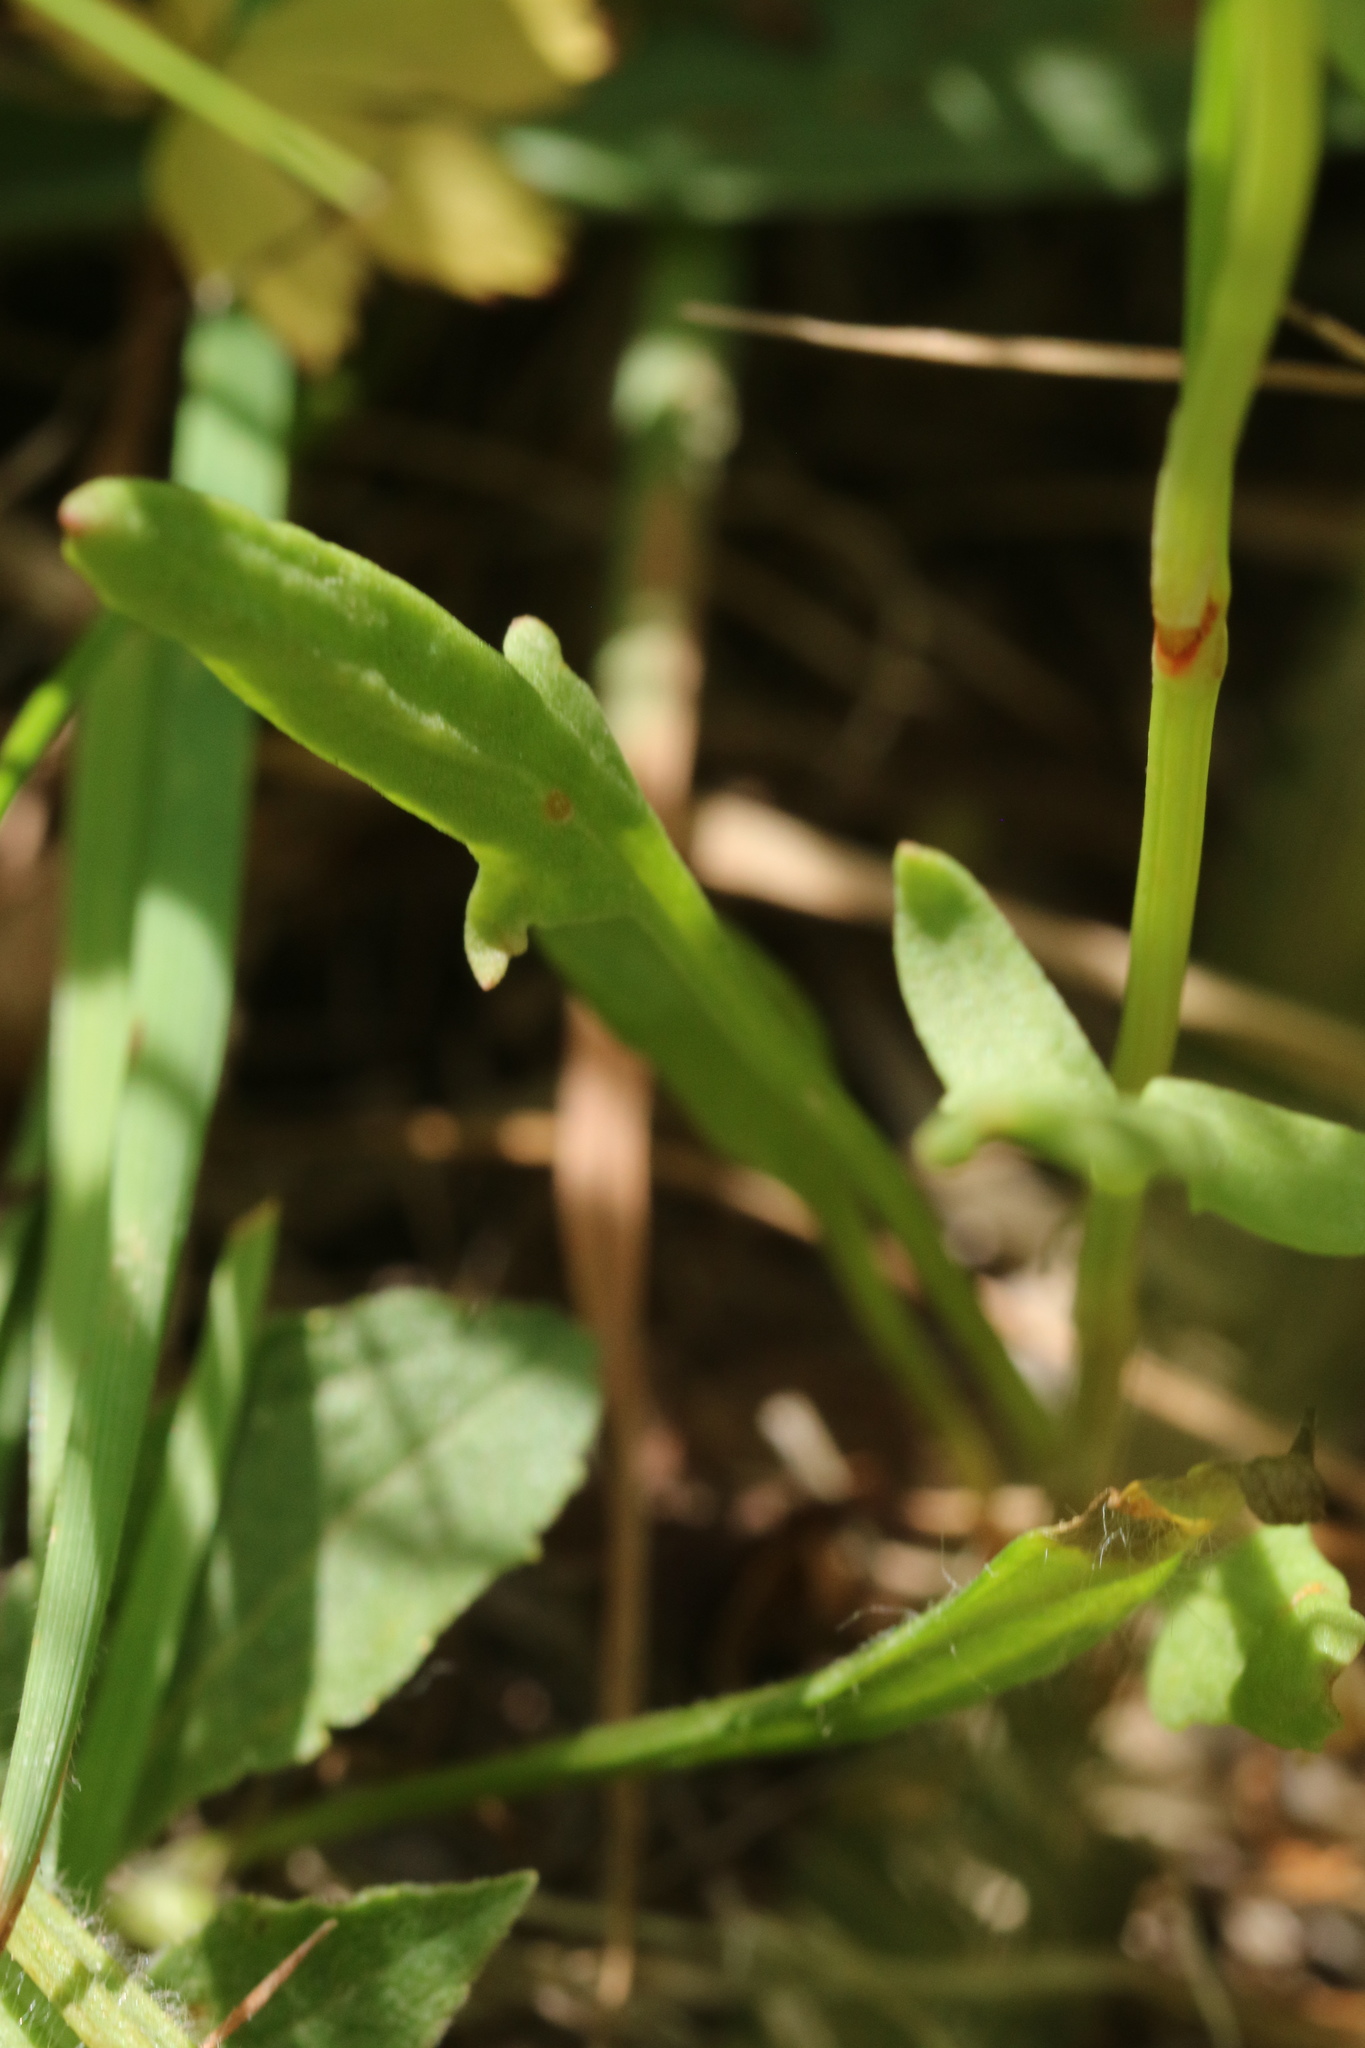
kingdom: Plantae
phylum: Tracheophyta
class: Magnoliopsida
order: Caryophyllales
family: Polygonaceae
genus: Rumex
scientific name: Rumex acetosella
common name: Common sheep sorrel
